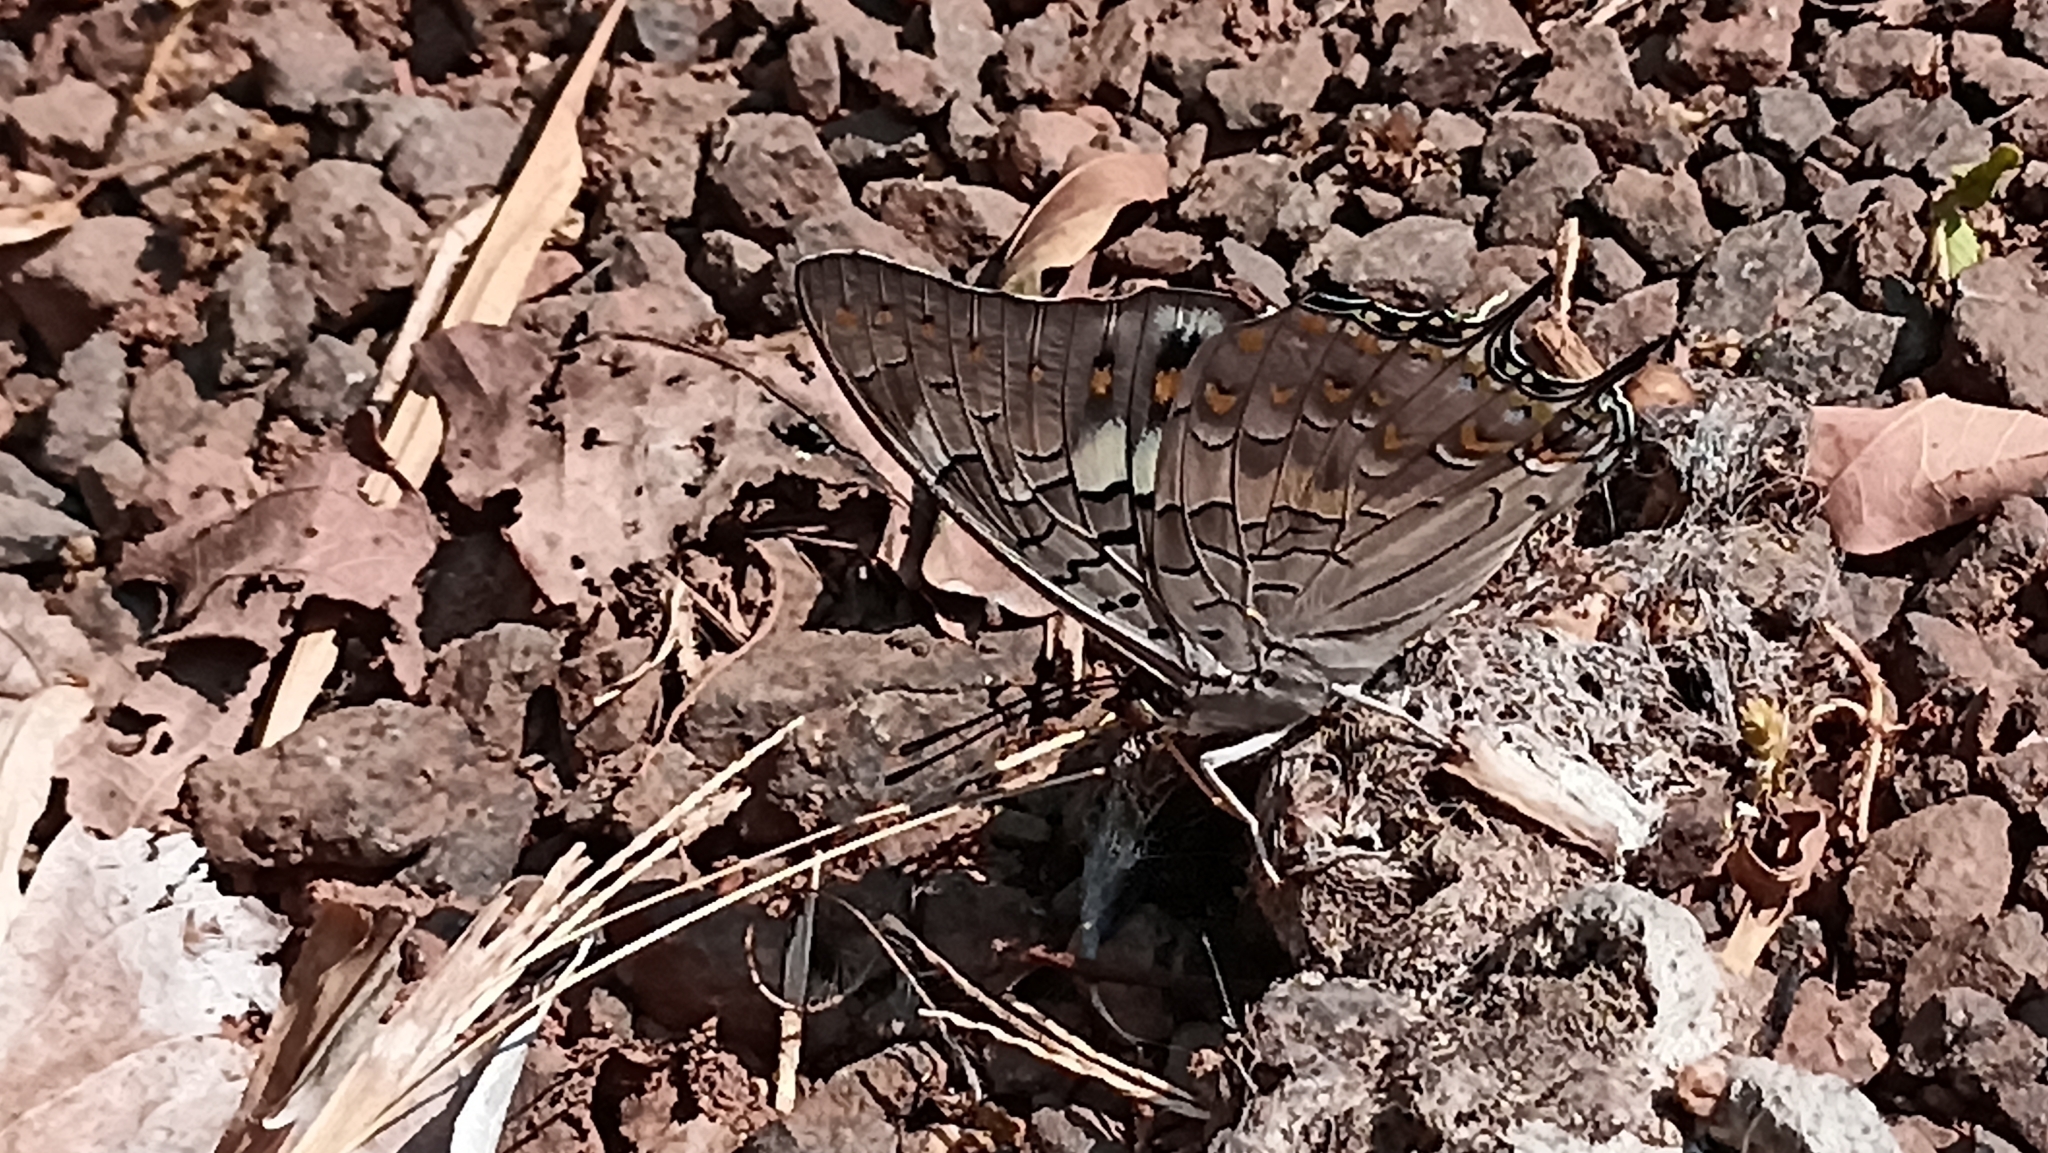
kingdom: Animalia
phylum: Arthropoda
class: Insecta
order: Lepidoptera
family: Nymphalidae
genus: Charaxes
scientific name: Charaxes solon
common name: Black rajah
